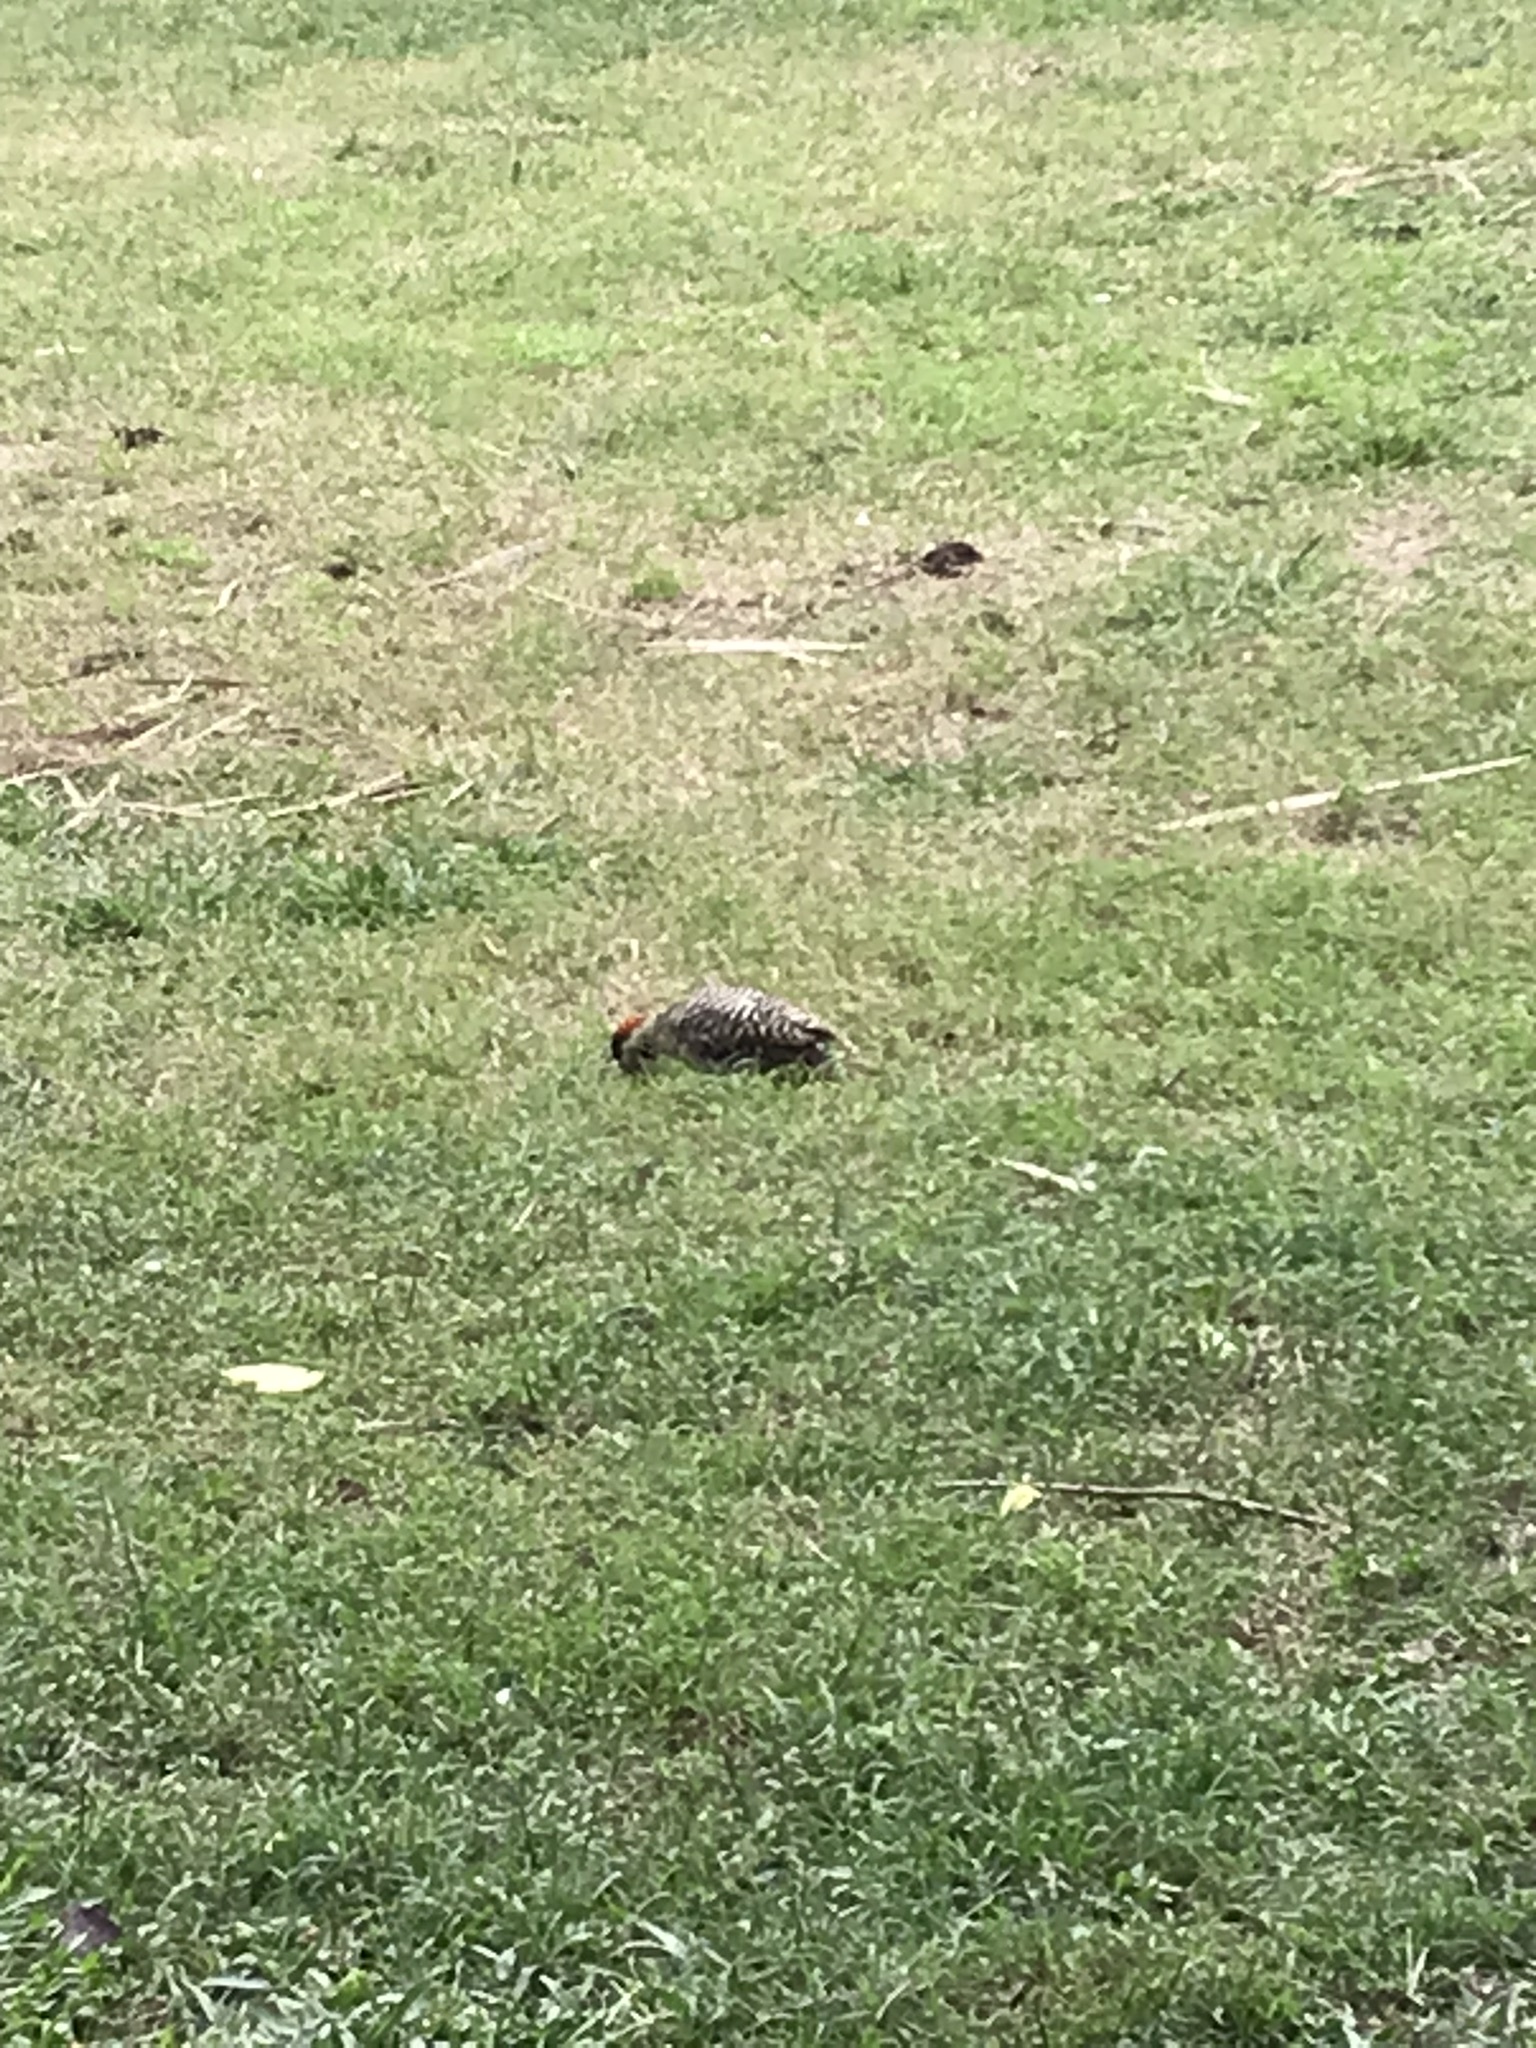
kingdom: Animalia
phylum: Chordata
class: Aves
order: Piciformes
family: Picidae
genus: Colaptes
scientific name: Colaptes melanochloros
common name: Green-barred woodpecker
